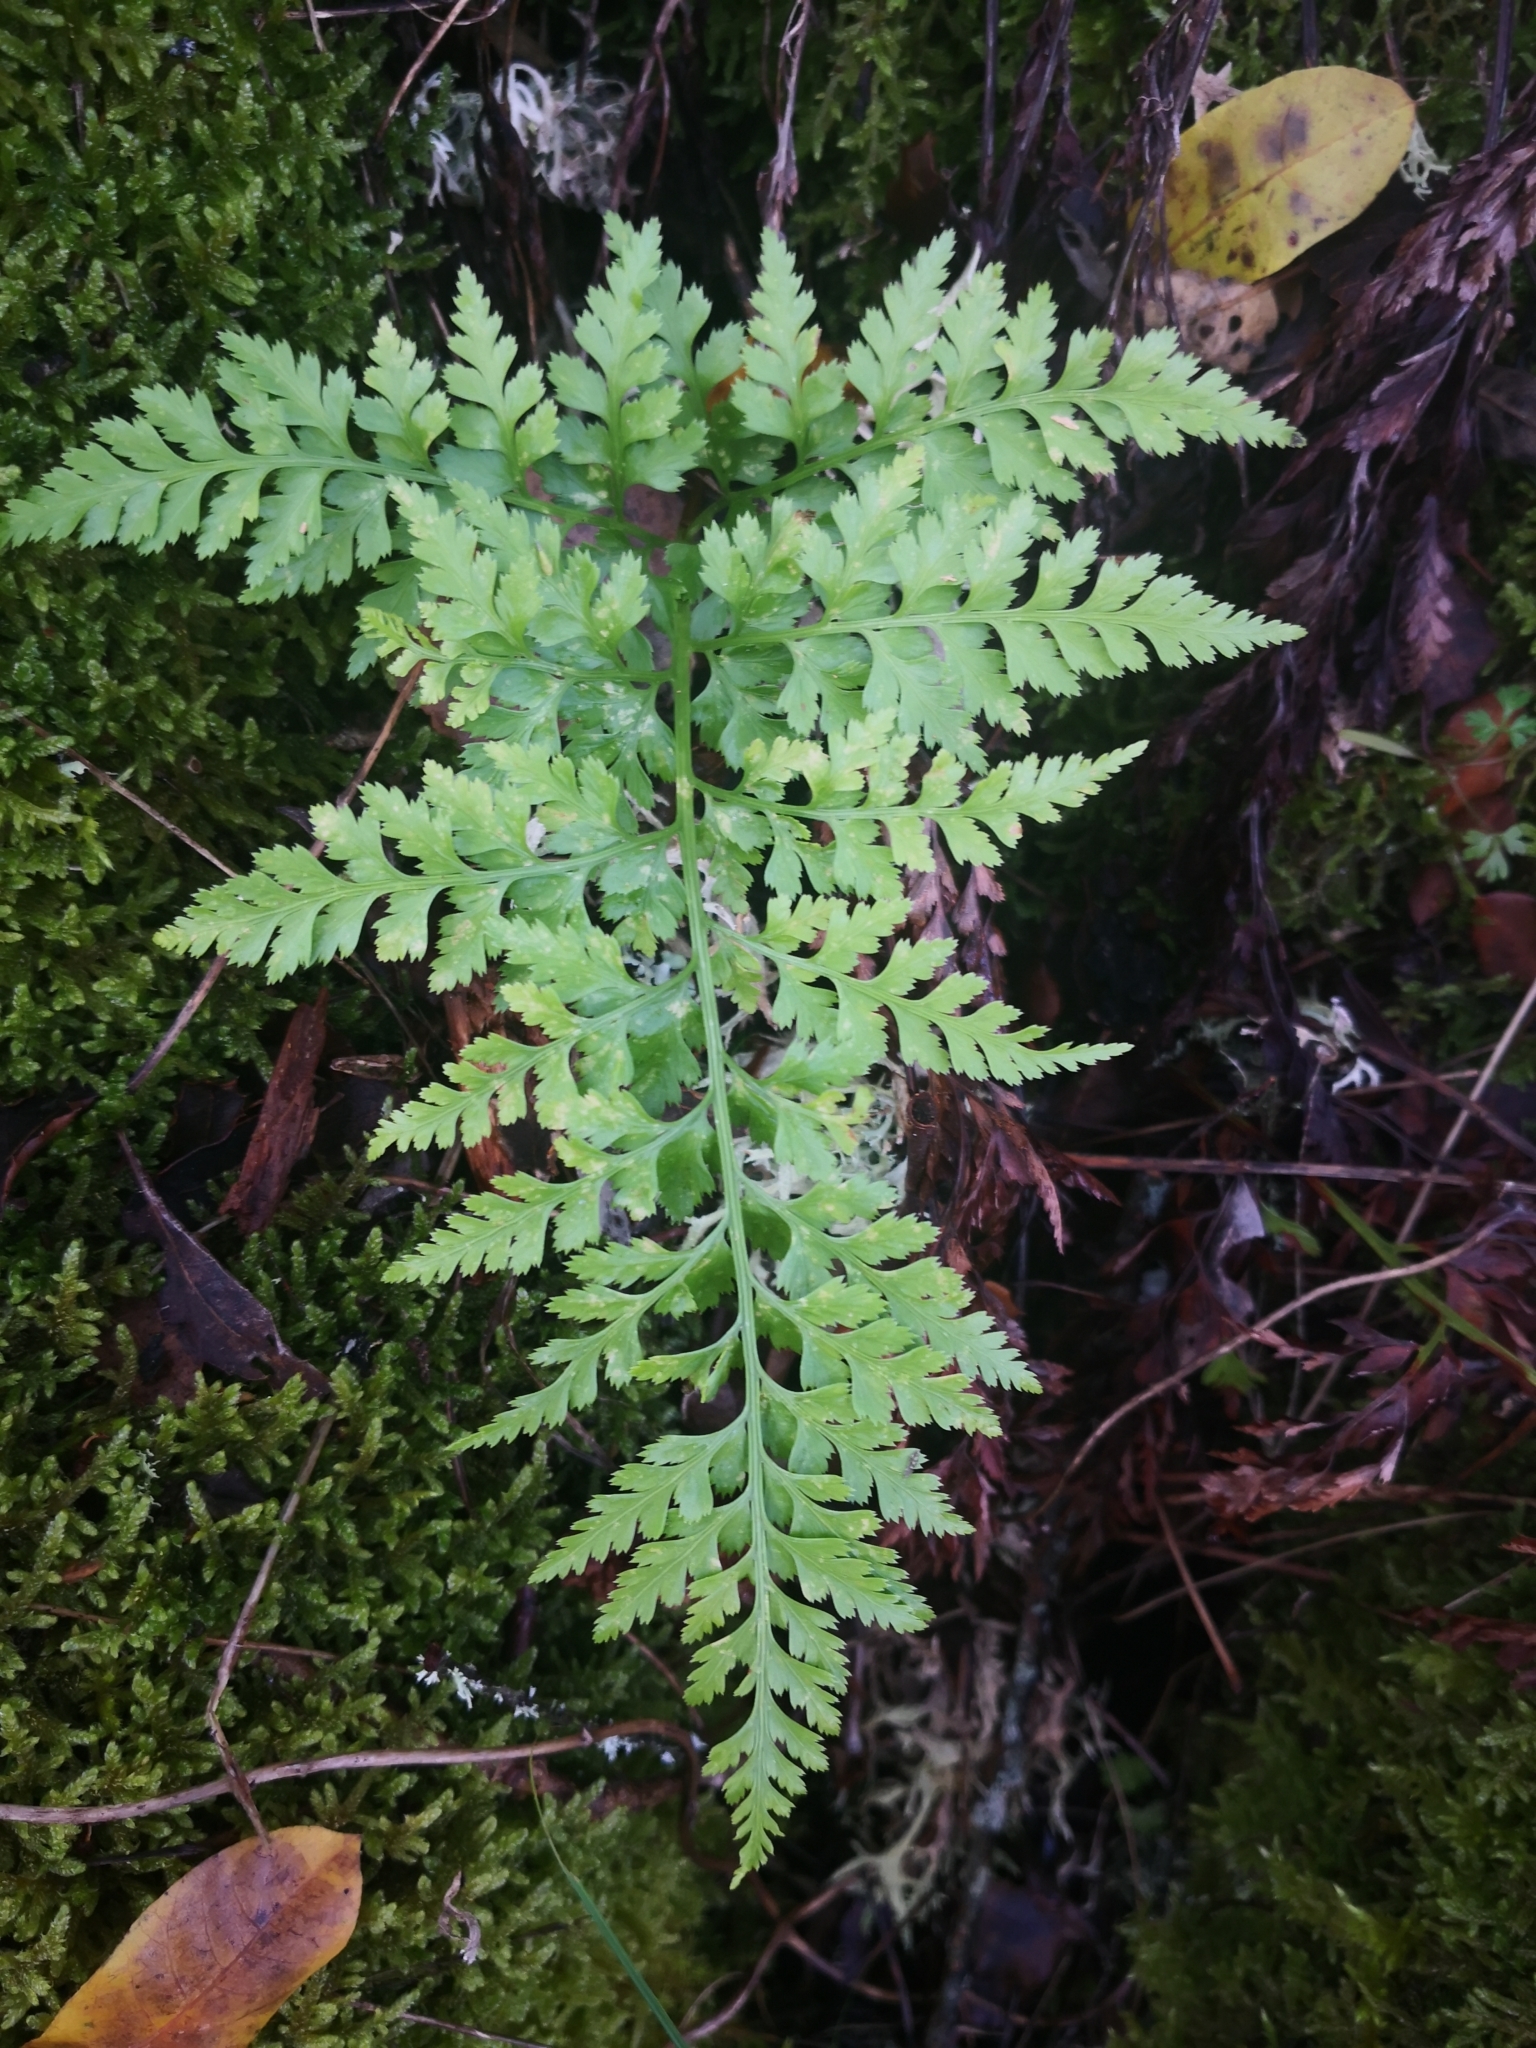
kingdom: Plantae
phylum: Tracheophyta
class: Polypodiopsida
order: Polypodiales
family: Aspleniaceae
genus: Asplenium
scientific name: Asplenium onopteris
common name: Irish spleenwort
